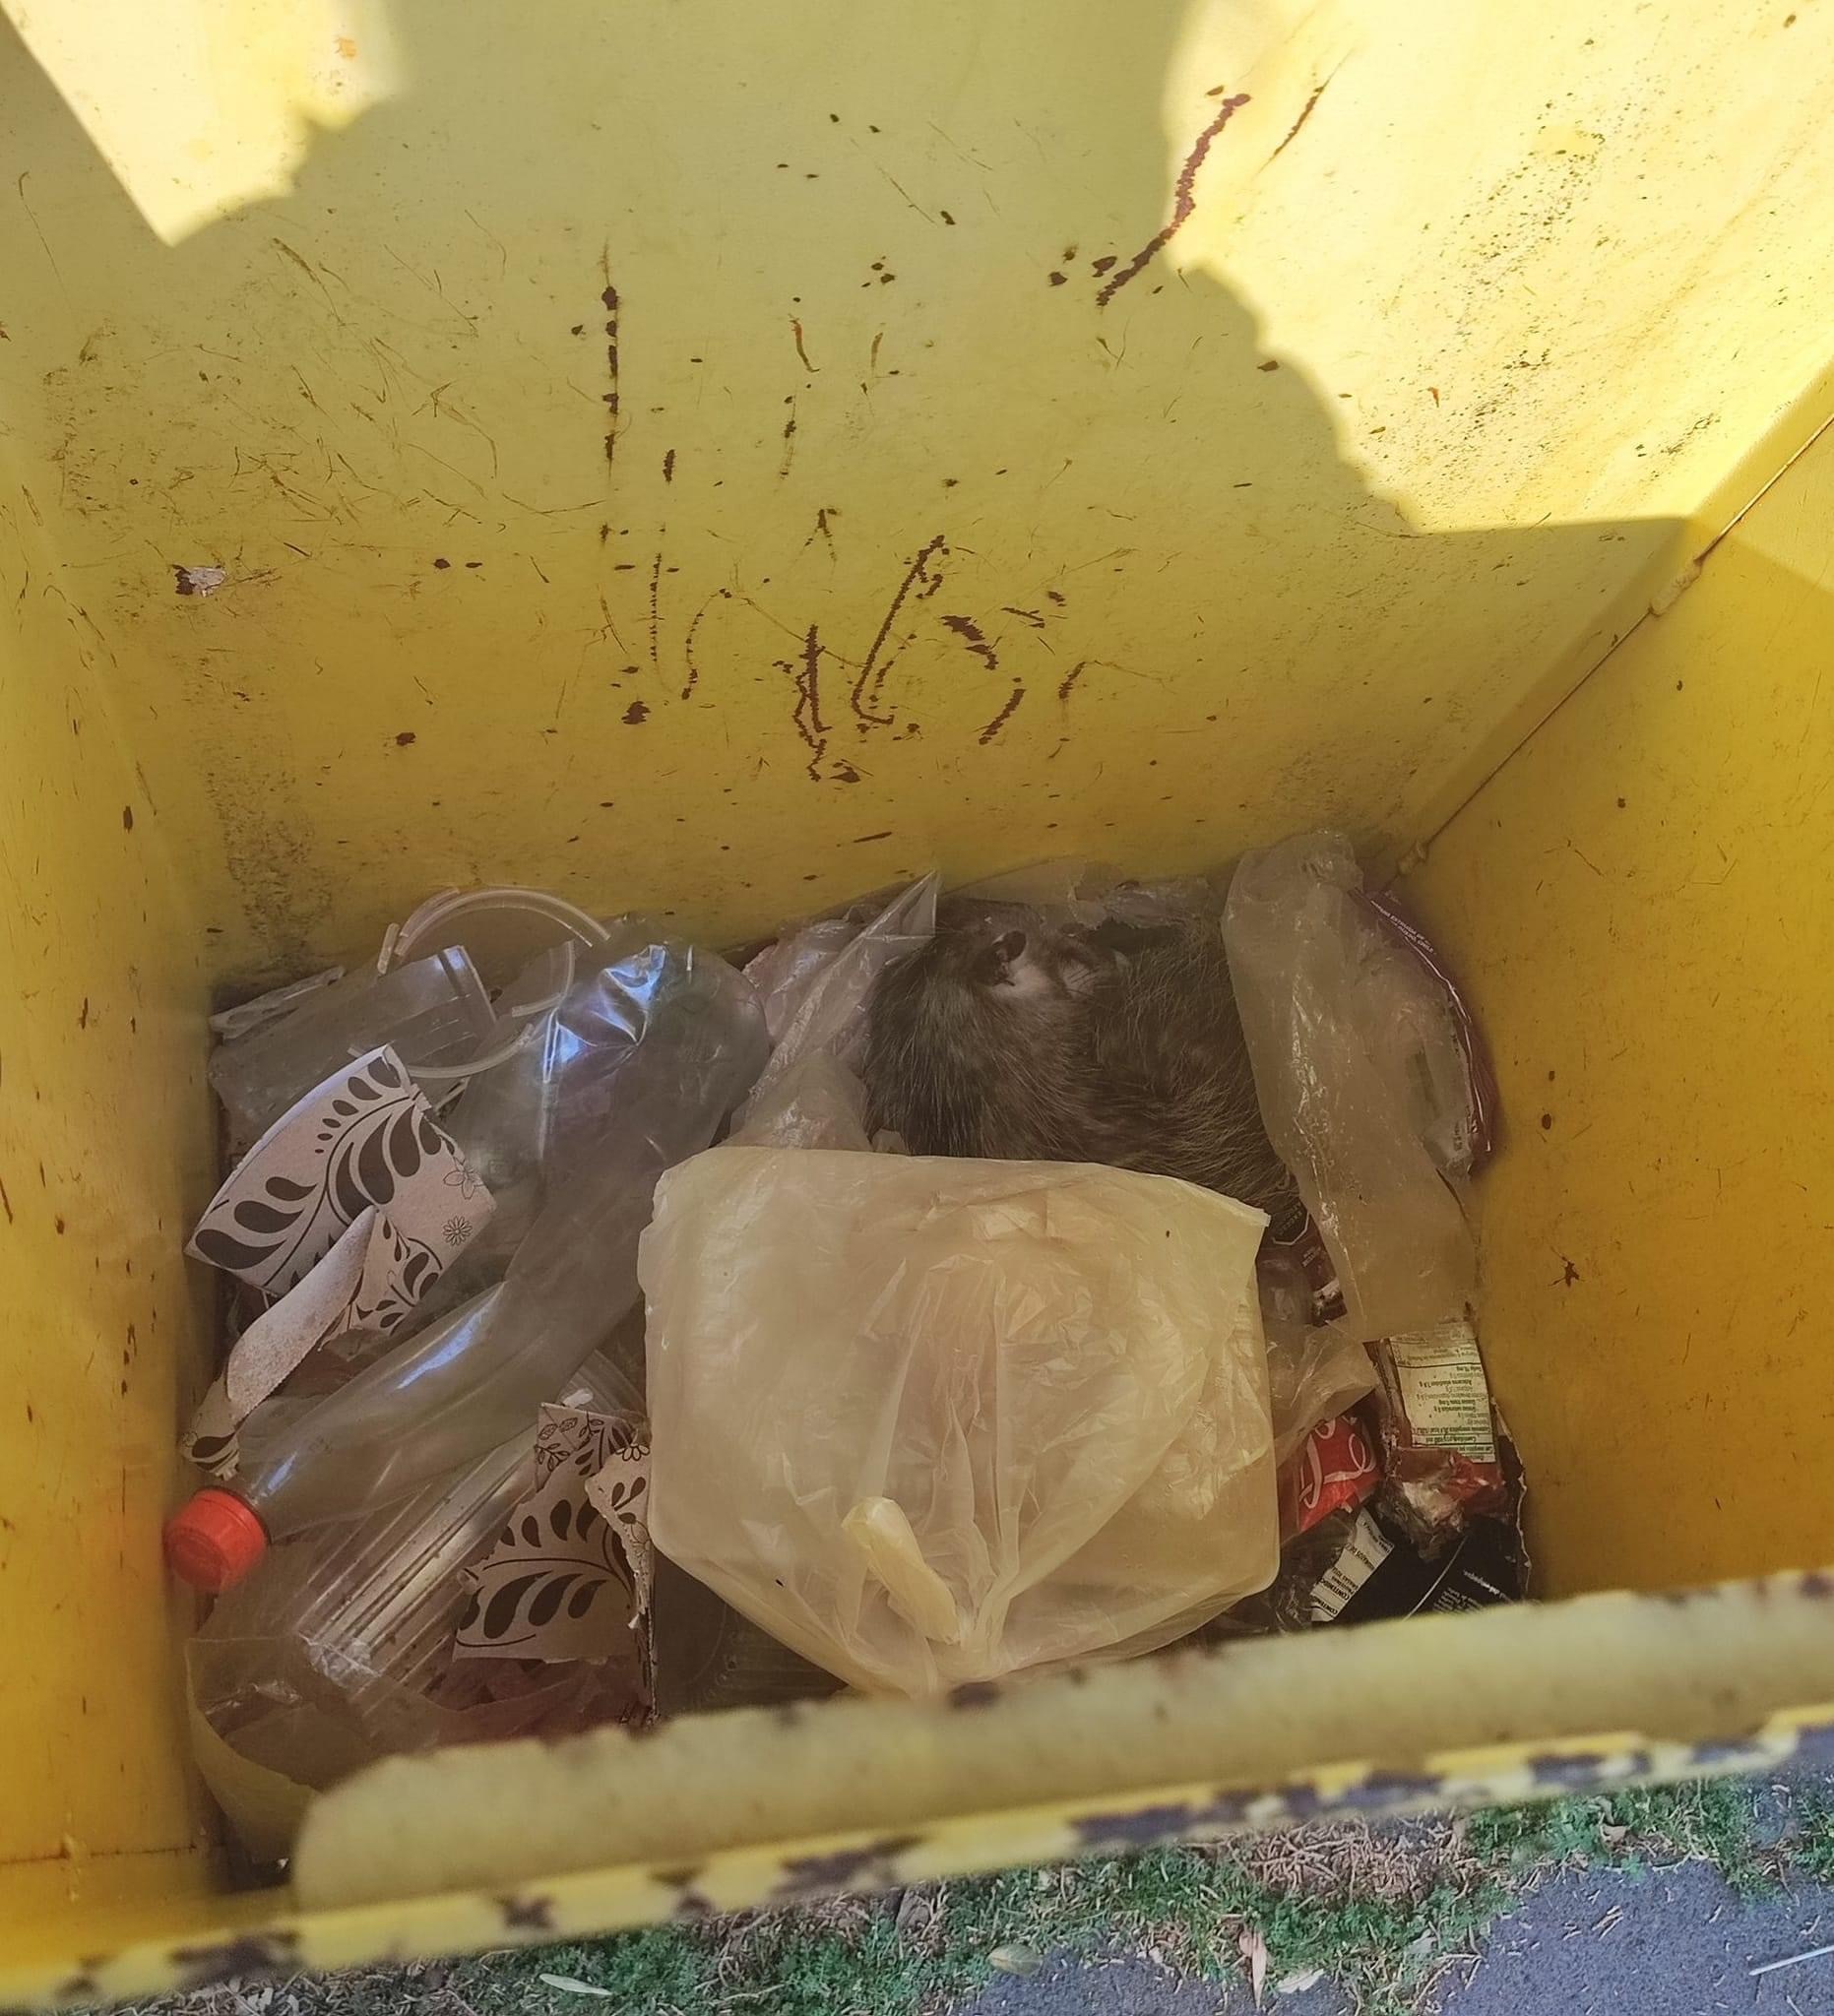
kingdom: Animalia
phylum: Chordata
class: Mammalia
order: Didelphimorphia
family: Didelphidae
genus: Didelphis
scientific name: Didelphis virginiana
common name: Virginia opossum
